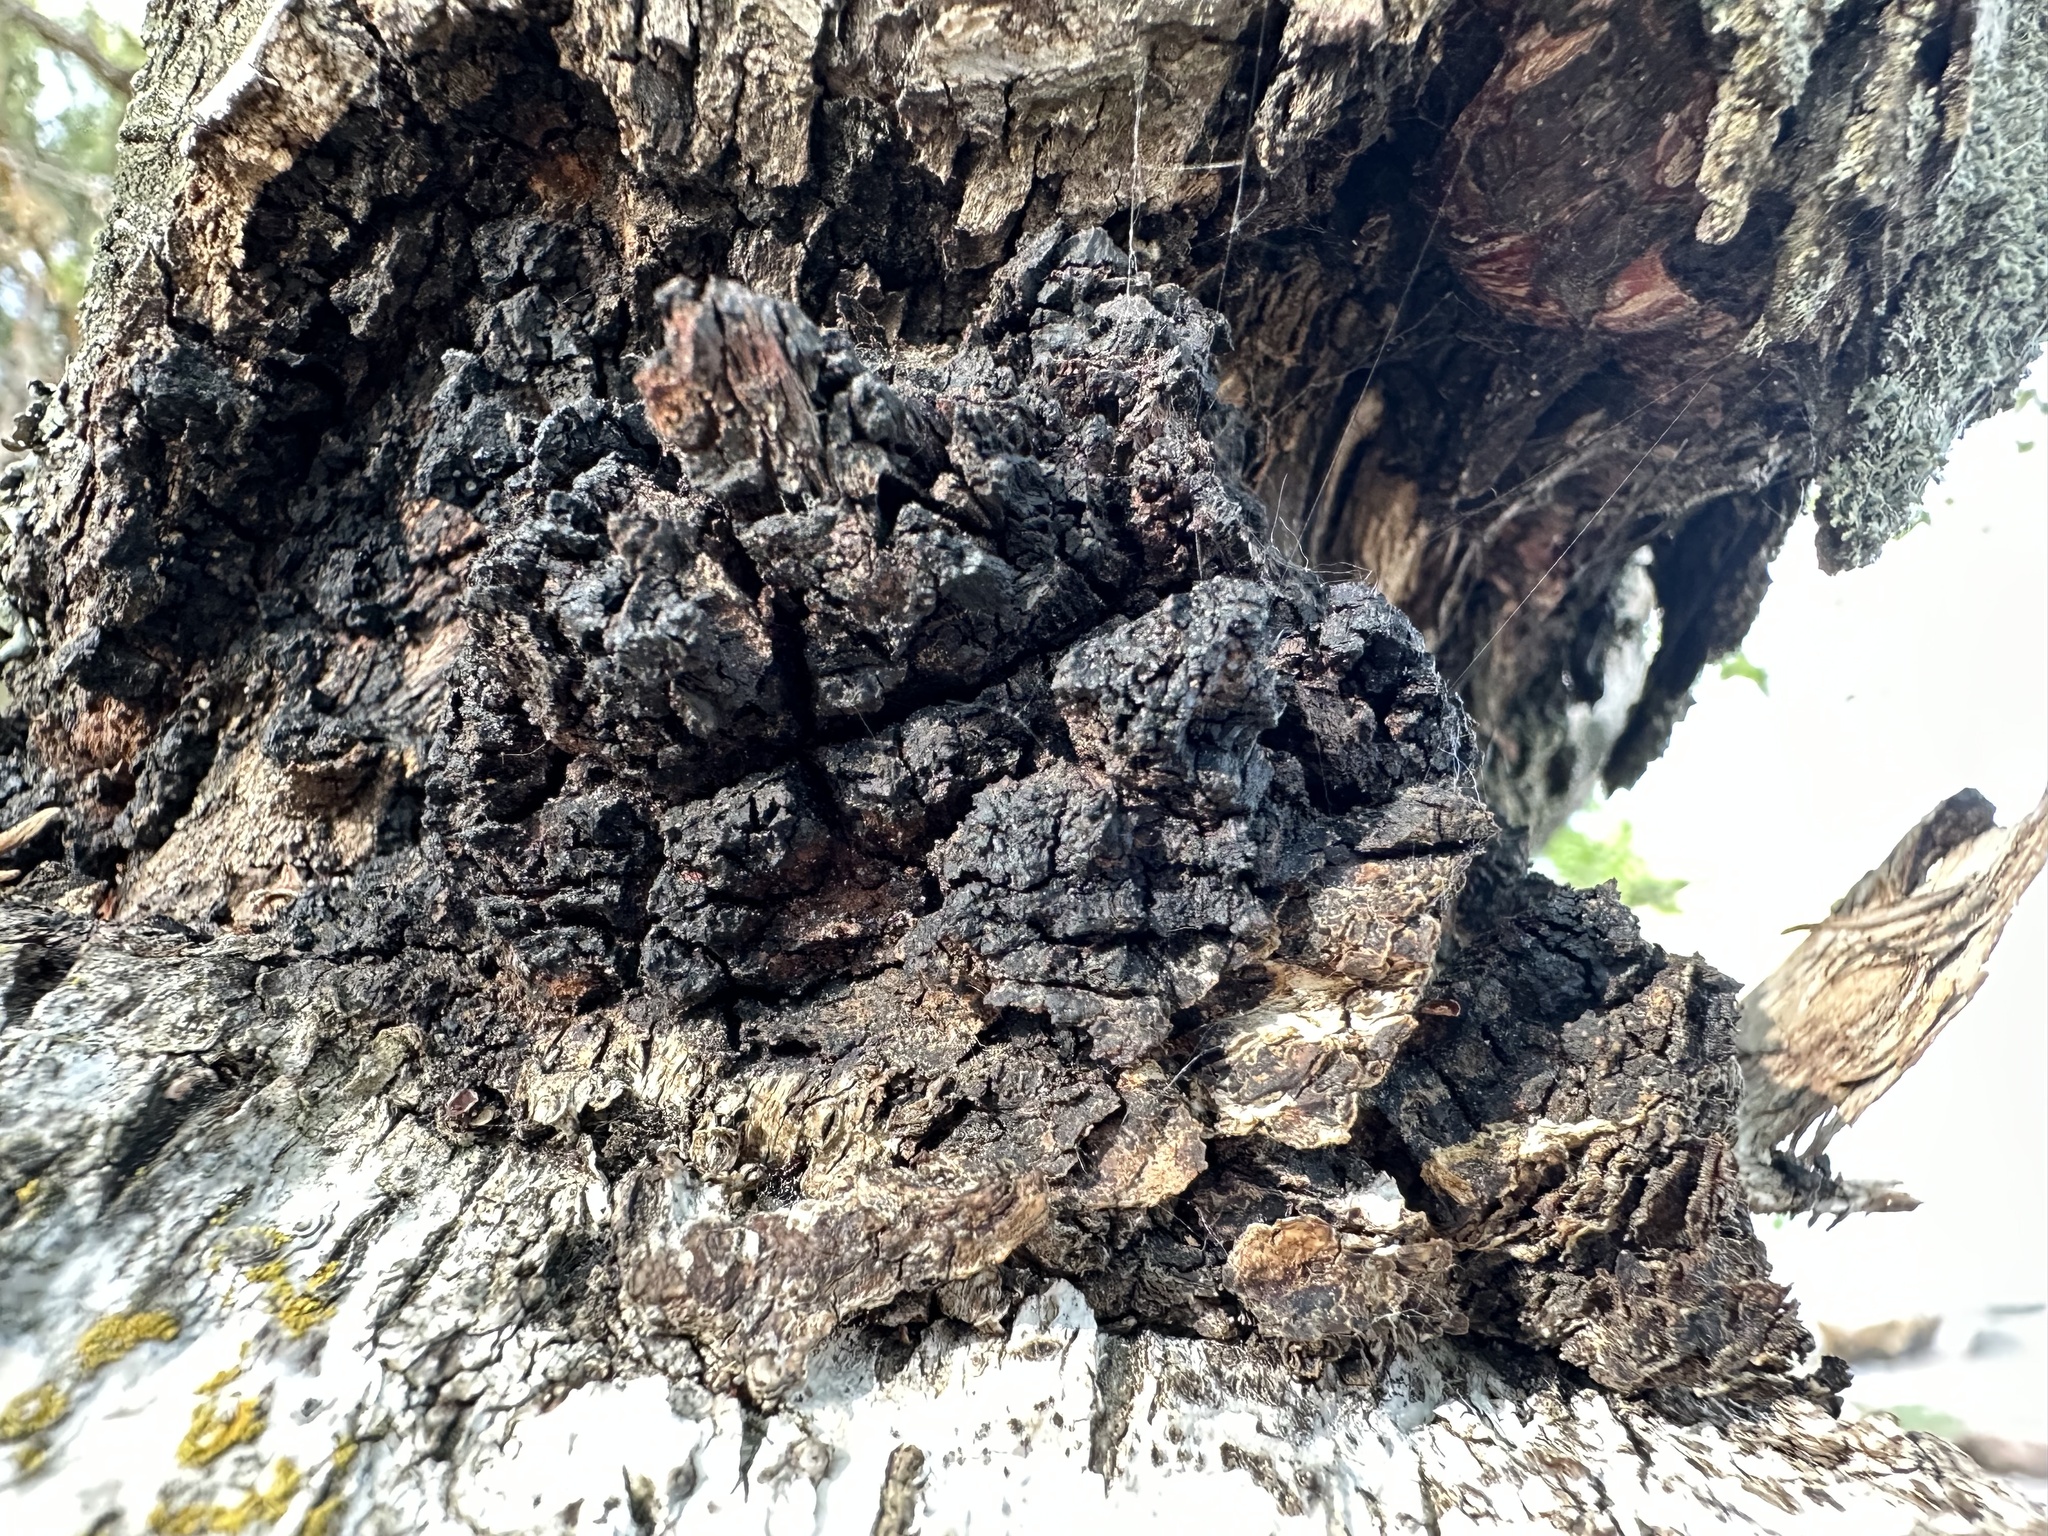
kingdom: Fungi
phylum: Basidiomycota
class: Agaricomycetes
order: Hymenochaetales
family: Hymenochaetaceae
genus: Inonotus
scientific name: Inonotus obliquus
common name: Chaga
